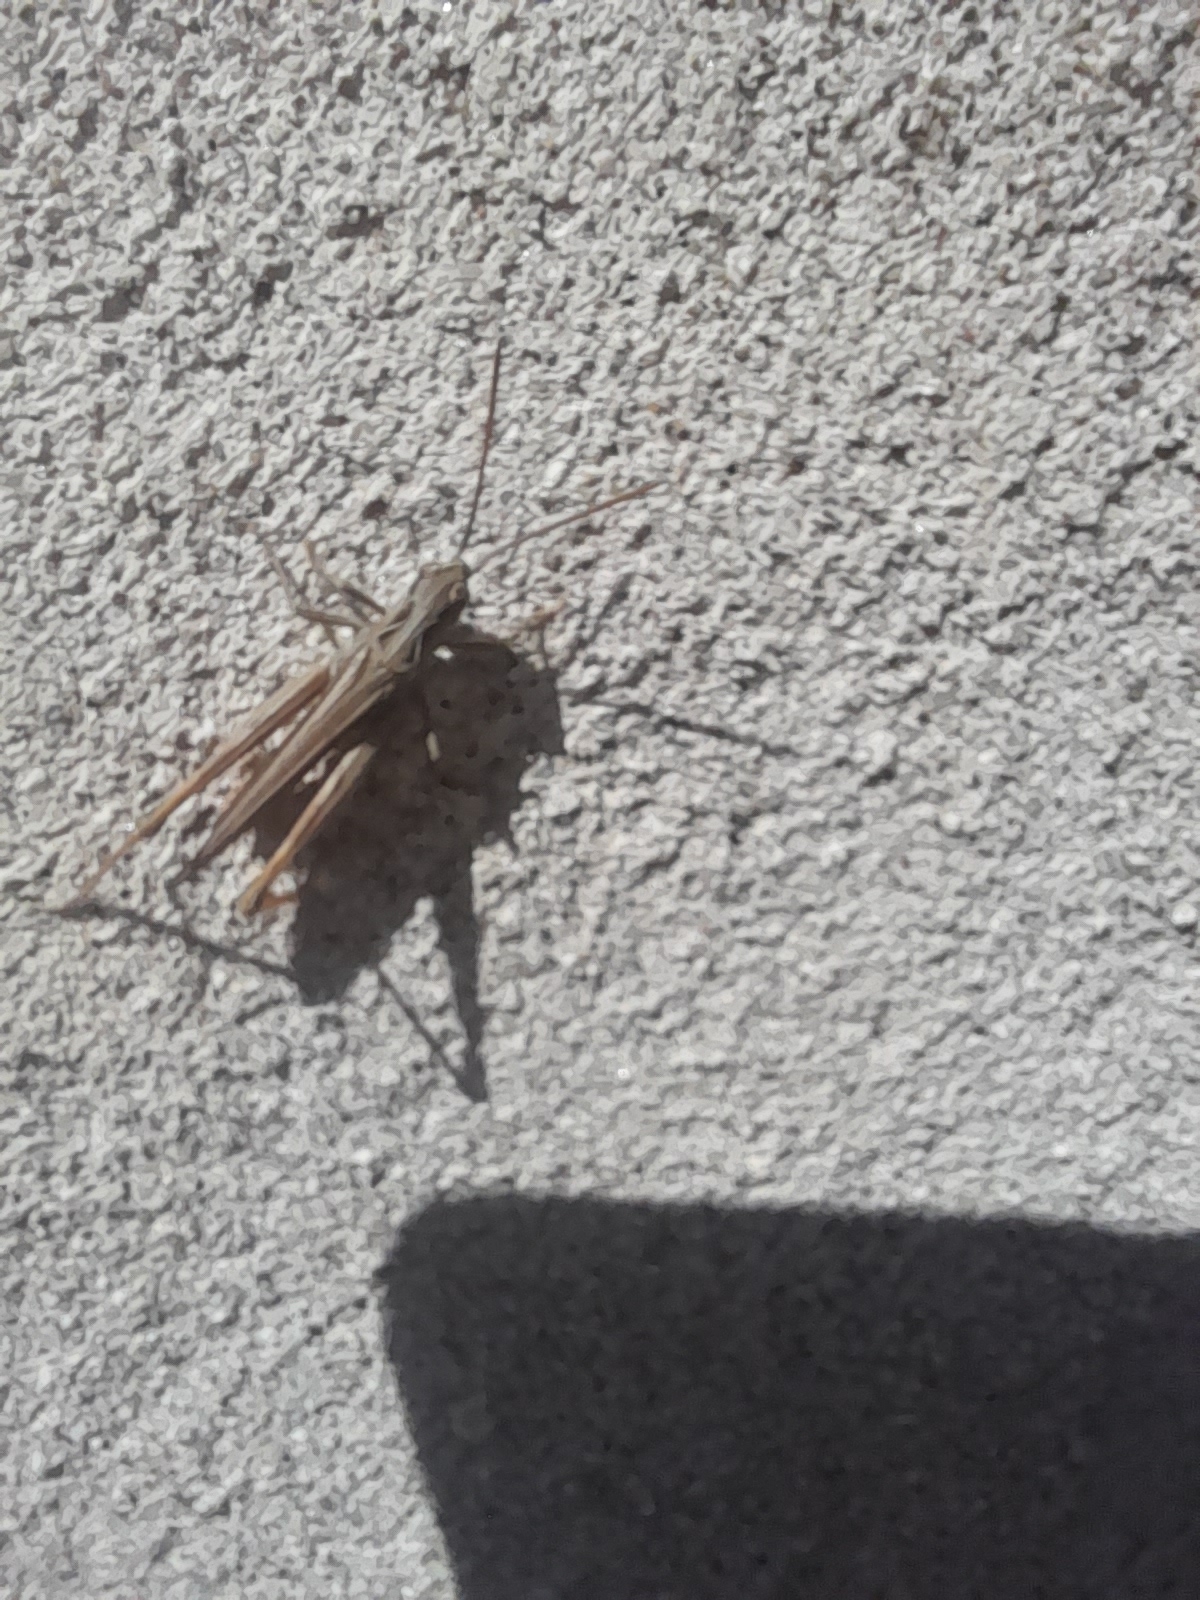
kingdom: Animalia
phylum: Arthropoda
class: Insecta
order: Orthoptera
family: Acrididae
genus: Chorthippus
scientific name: Chorthippus brunneus
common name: Field grasshopper
